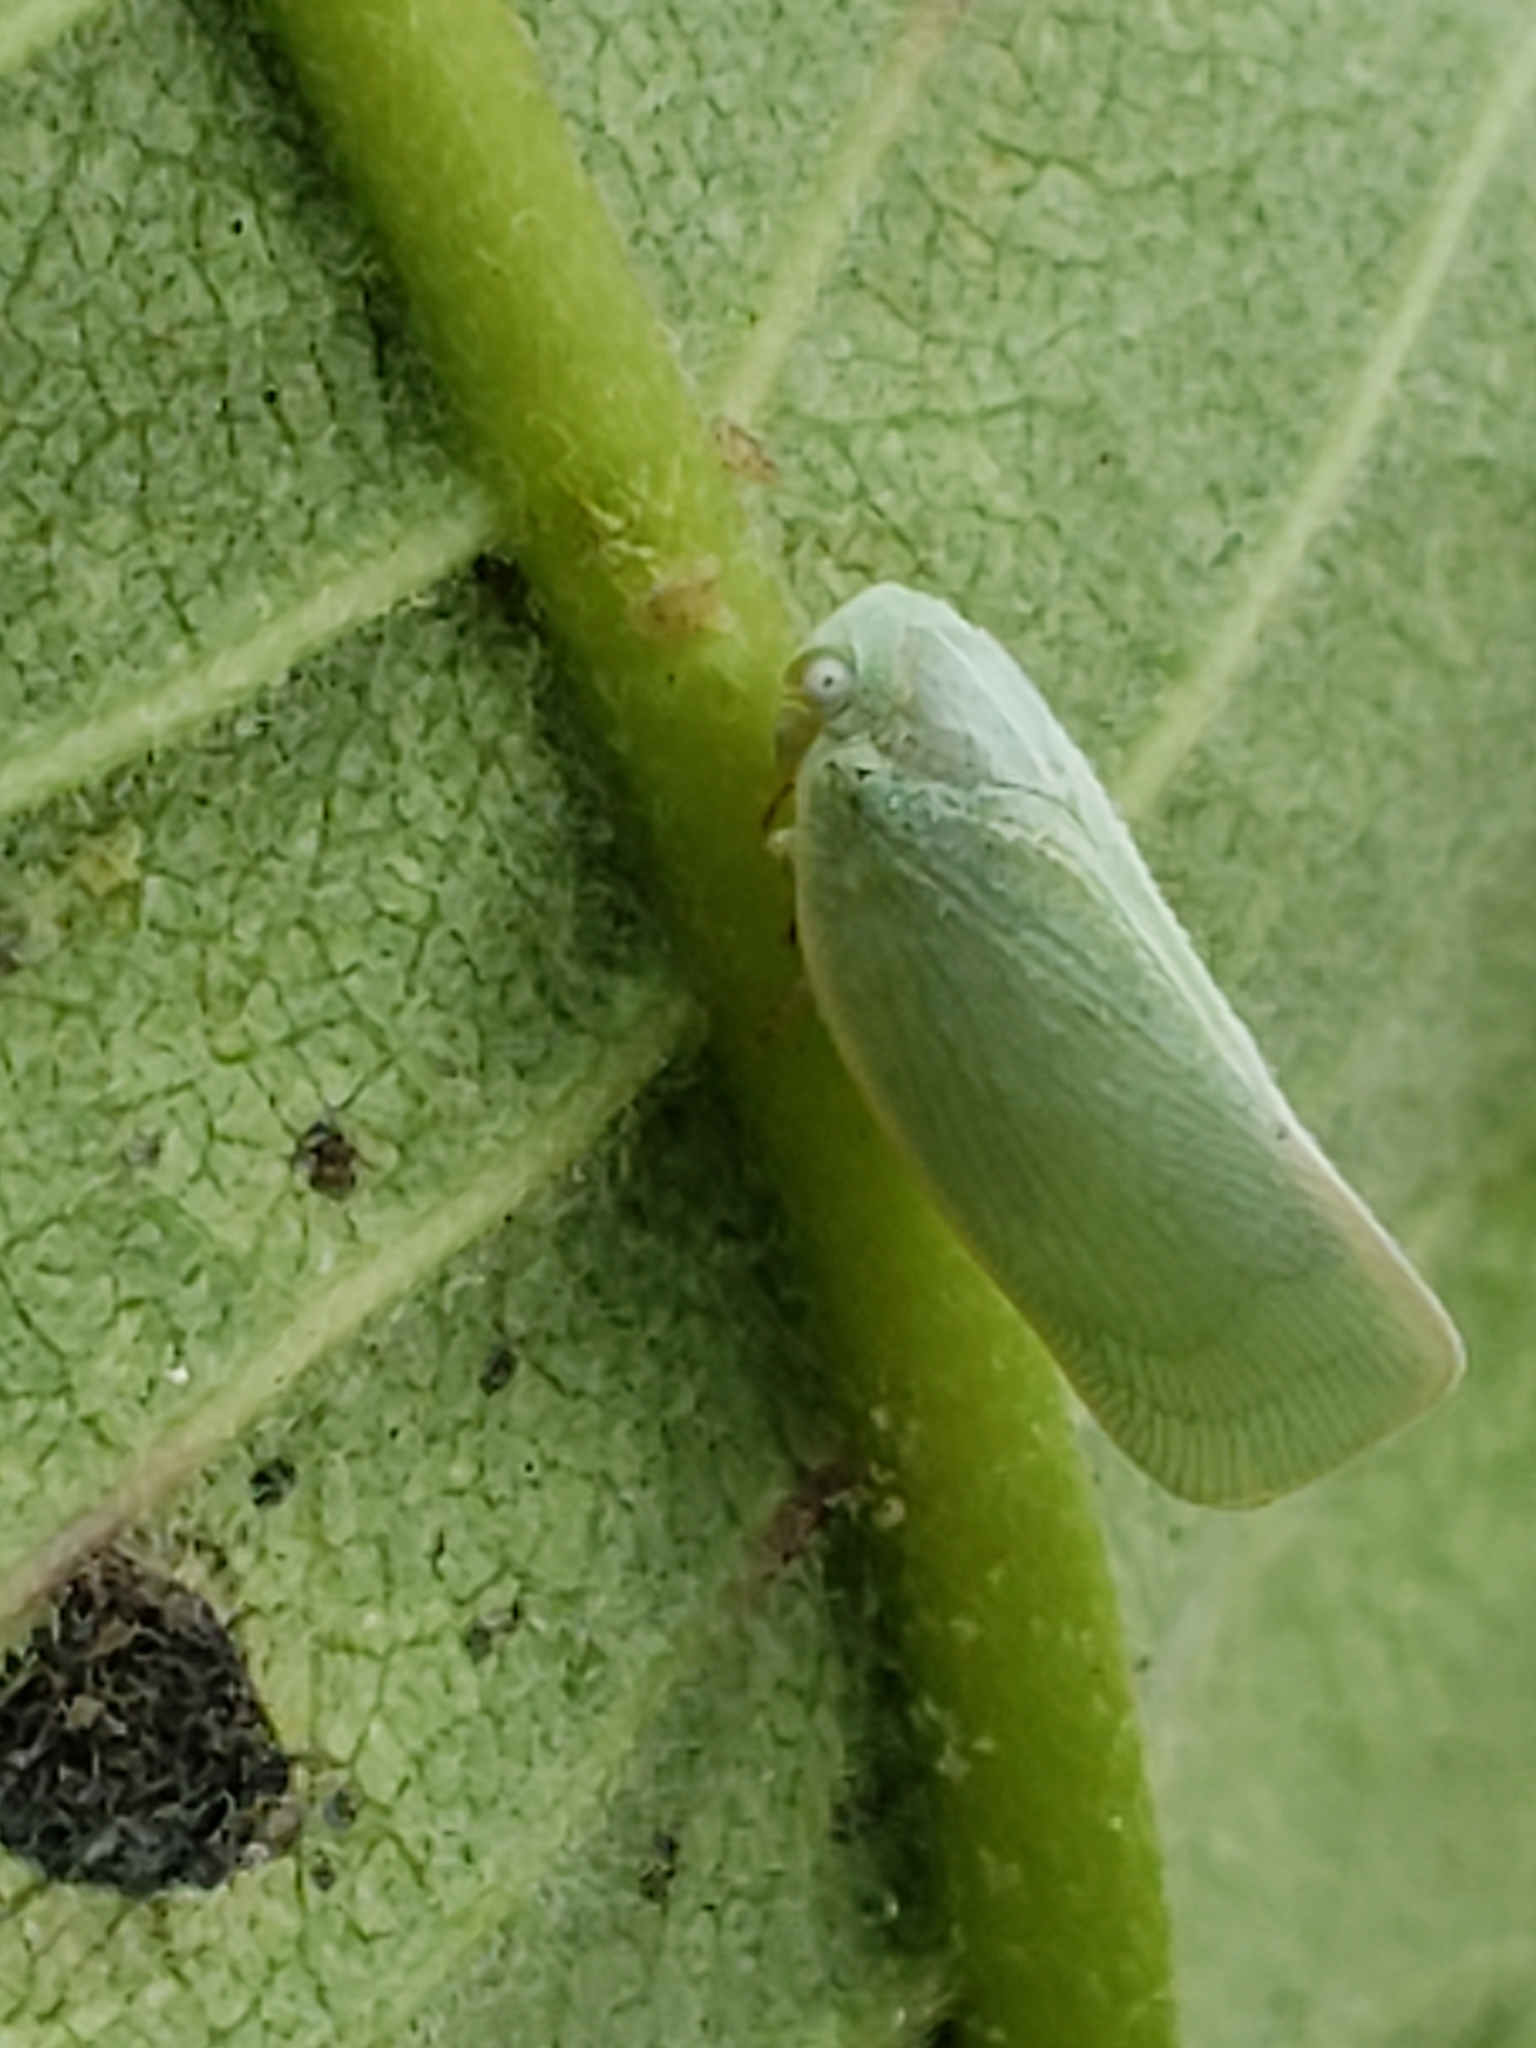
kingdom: Animalia
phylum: Arthropoda
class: Insecta
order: Hemiptera
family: Flatidae
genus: Flatormenis
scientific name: Flatormenis proxima
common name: Northern flatid planthopper
